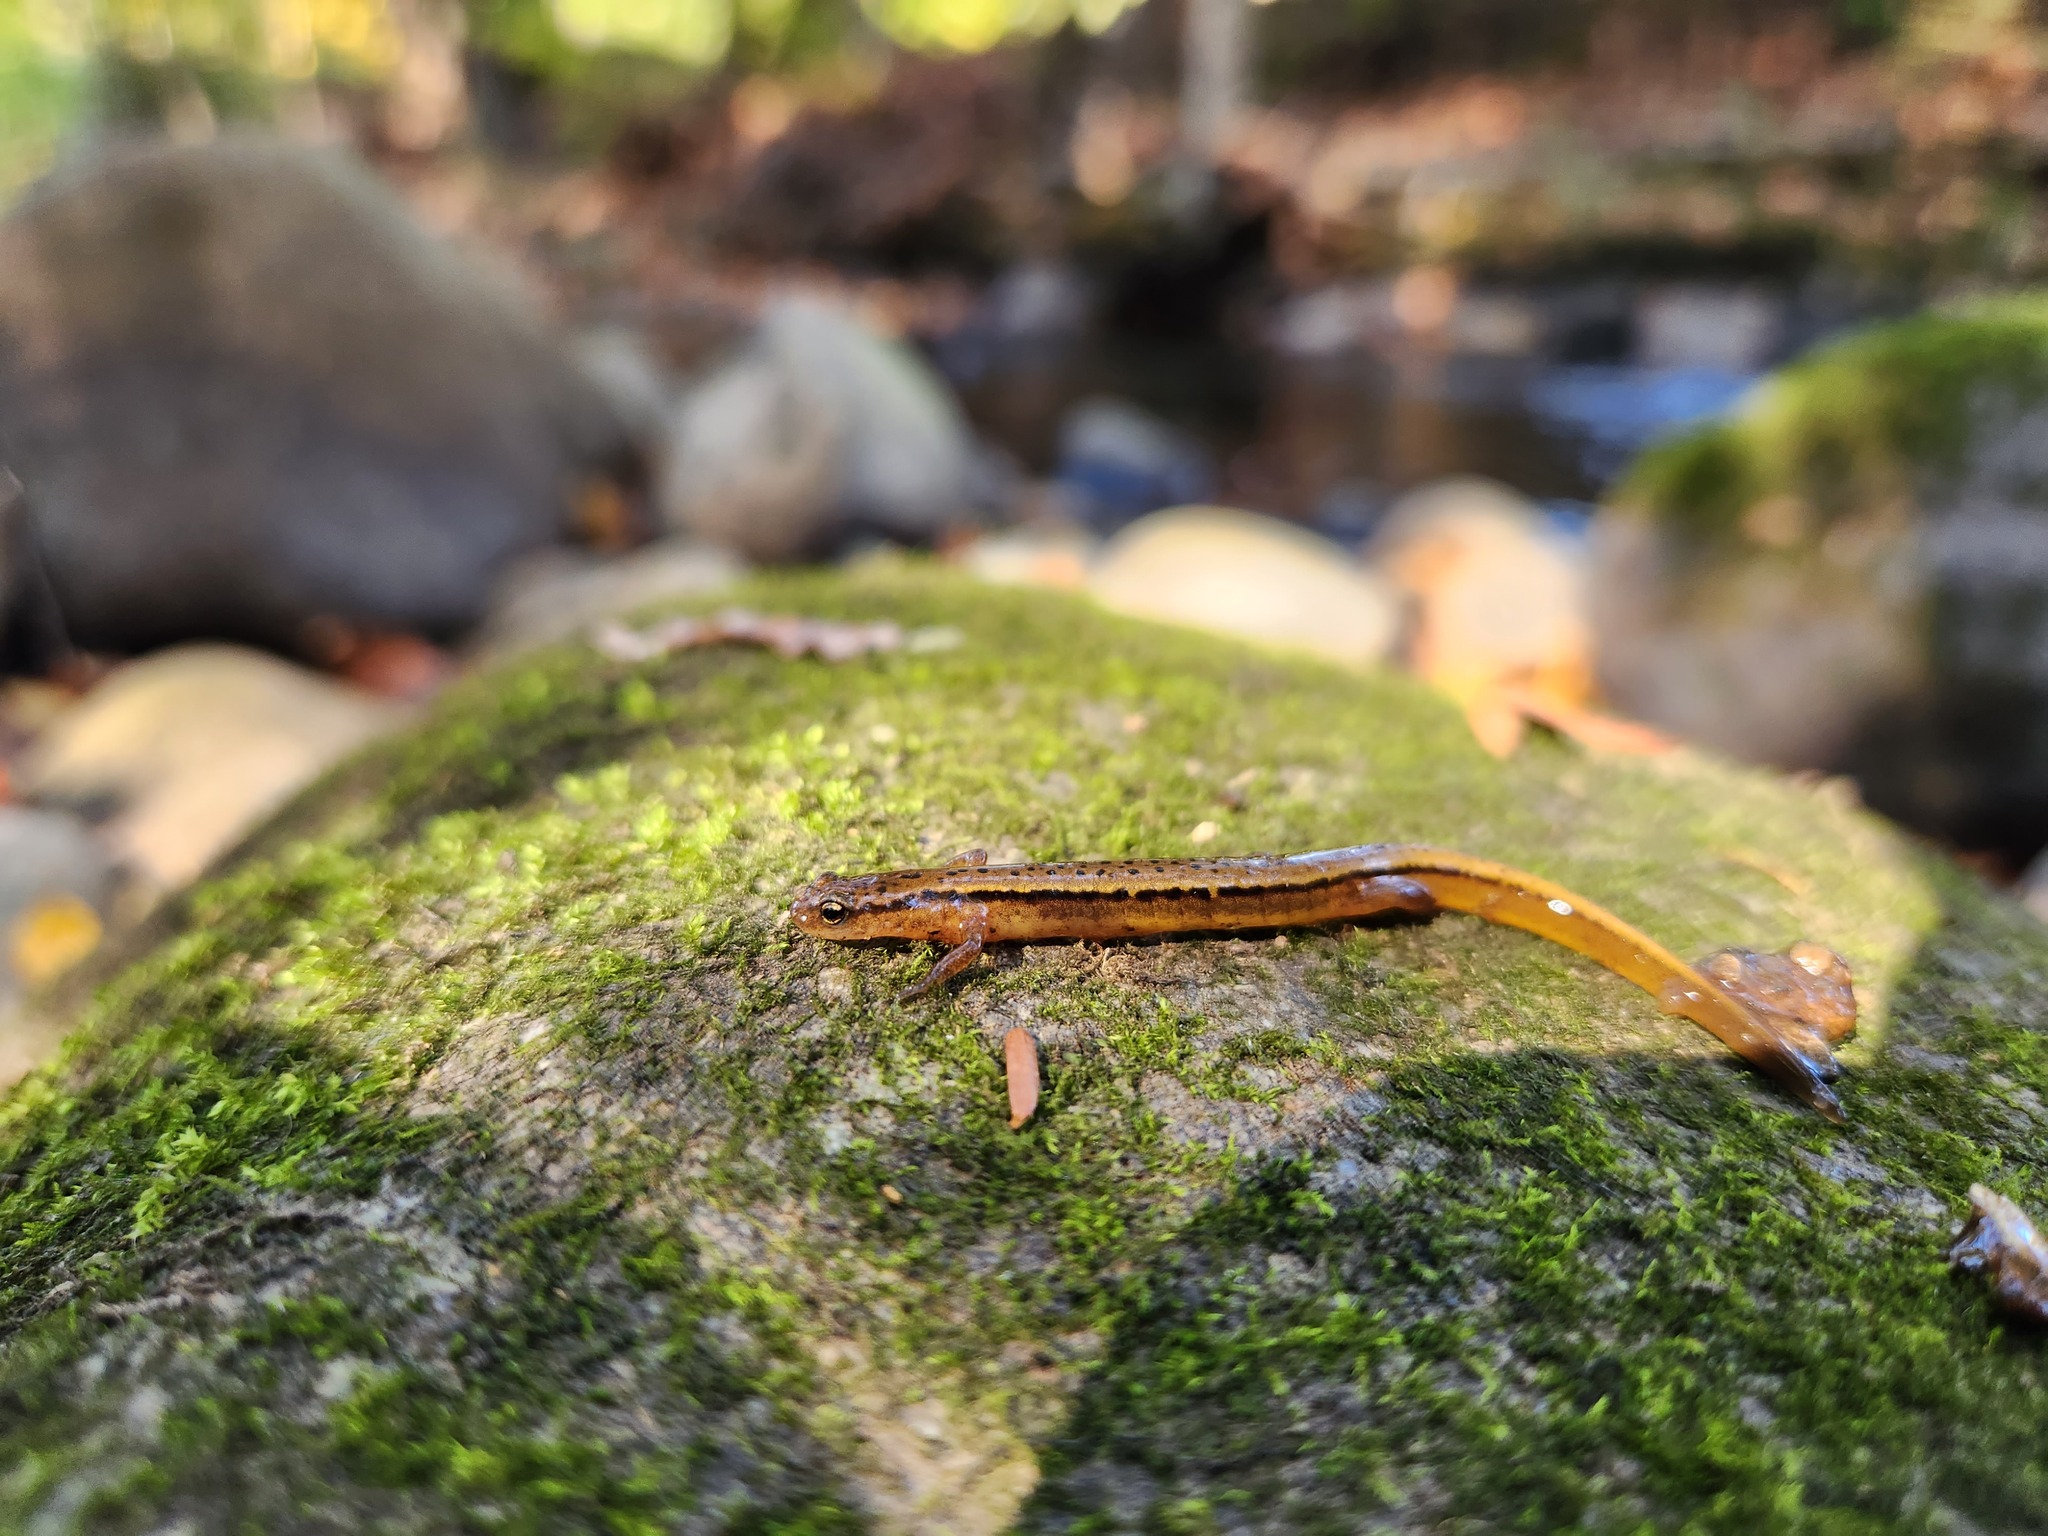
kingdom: Animalia
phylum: Chordata
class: Amphibia
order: Caudata
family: Plethodontidae
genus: Eurycea
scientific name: Eurycea cirrigera
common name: Southern two-lined salamander
